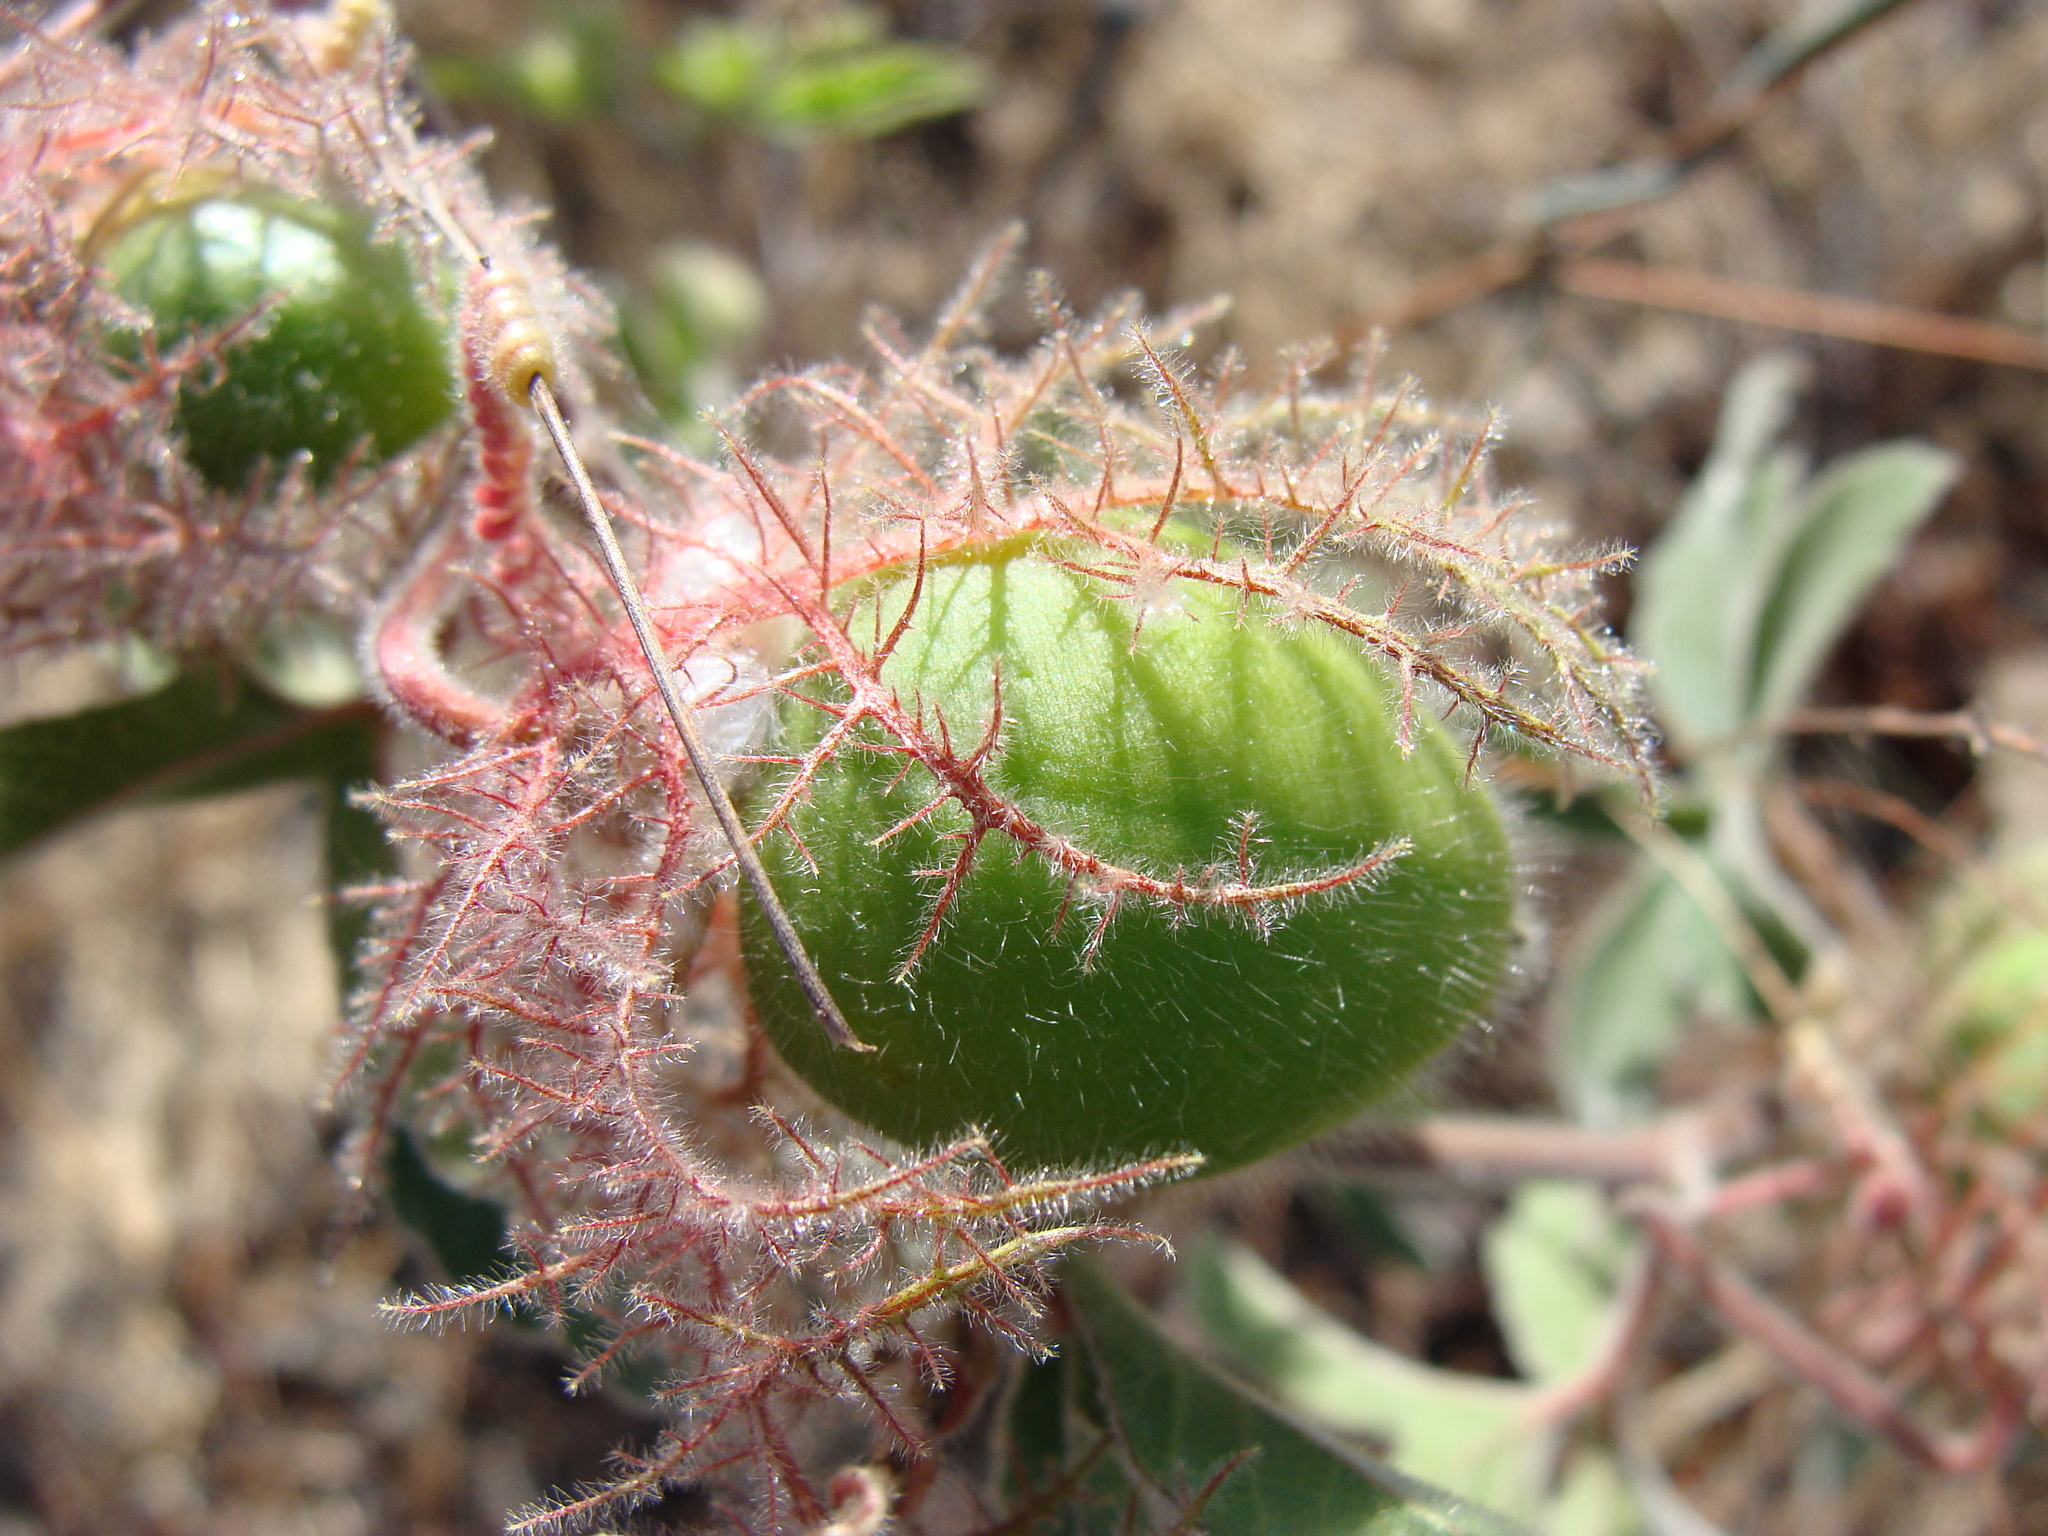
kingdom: Plantae
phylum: Tracheophyta
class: Magnoliopsida
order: Malpighiales
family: Passifloraceae
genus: Passiflora
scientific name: Passiflora pentaschista
